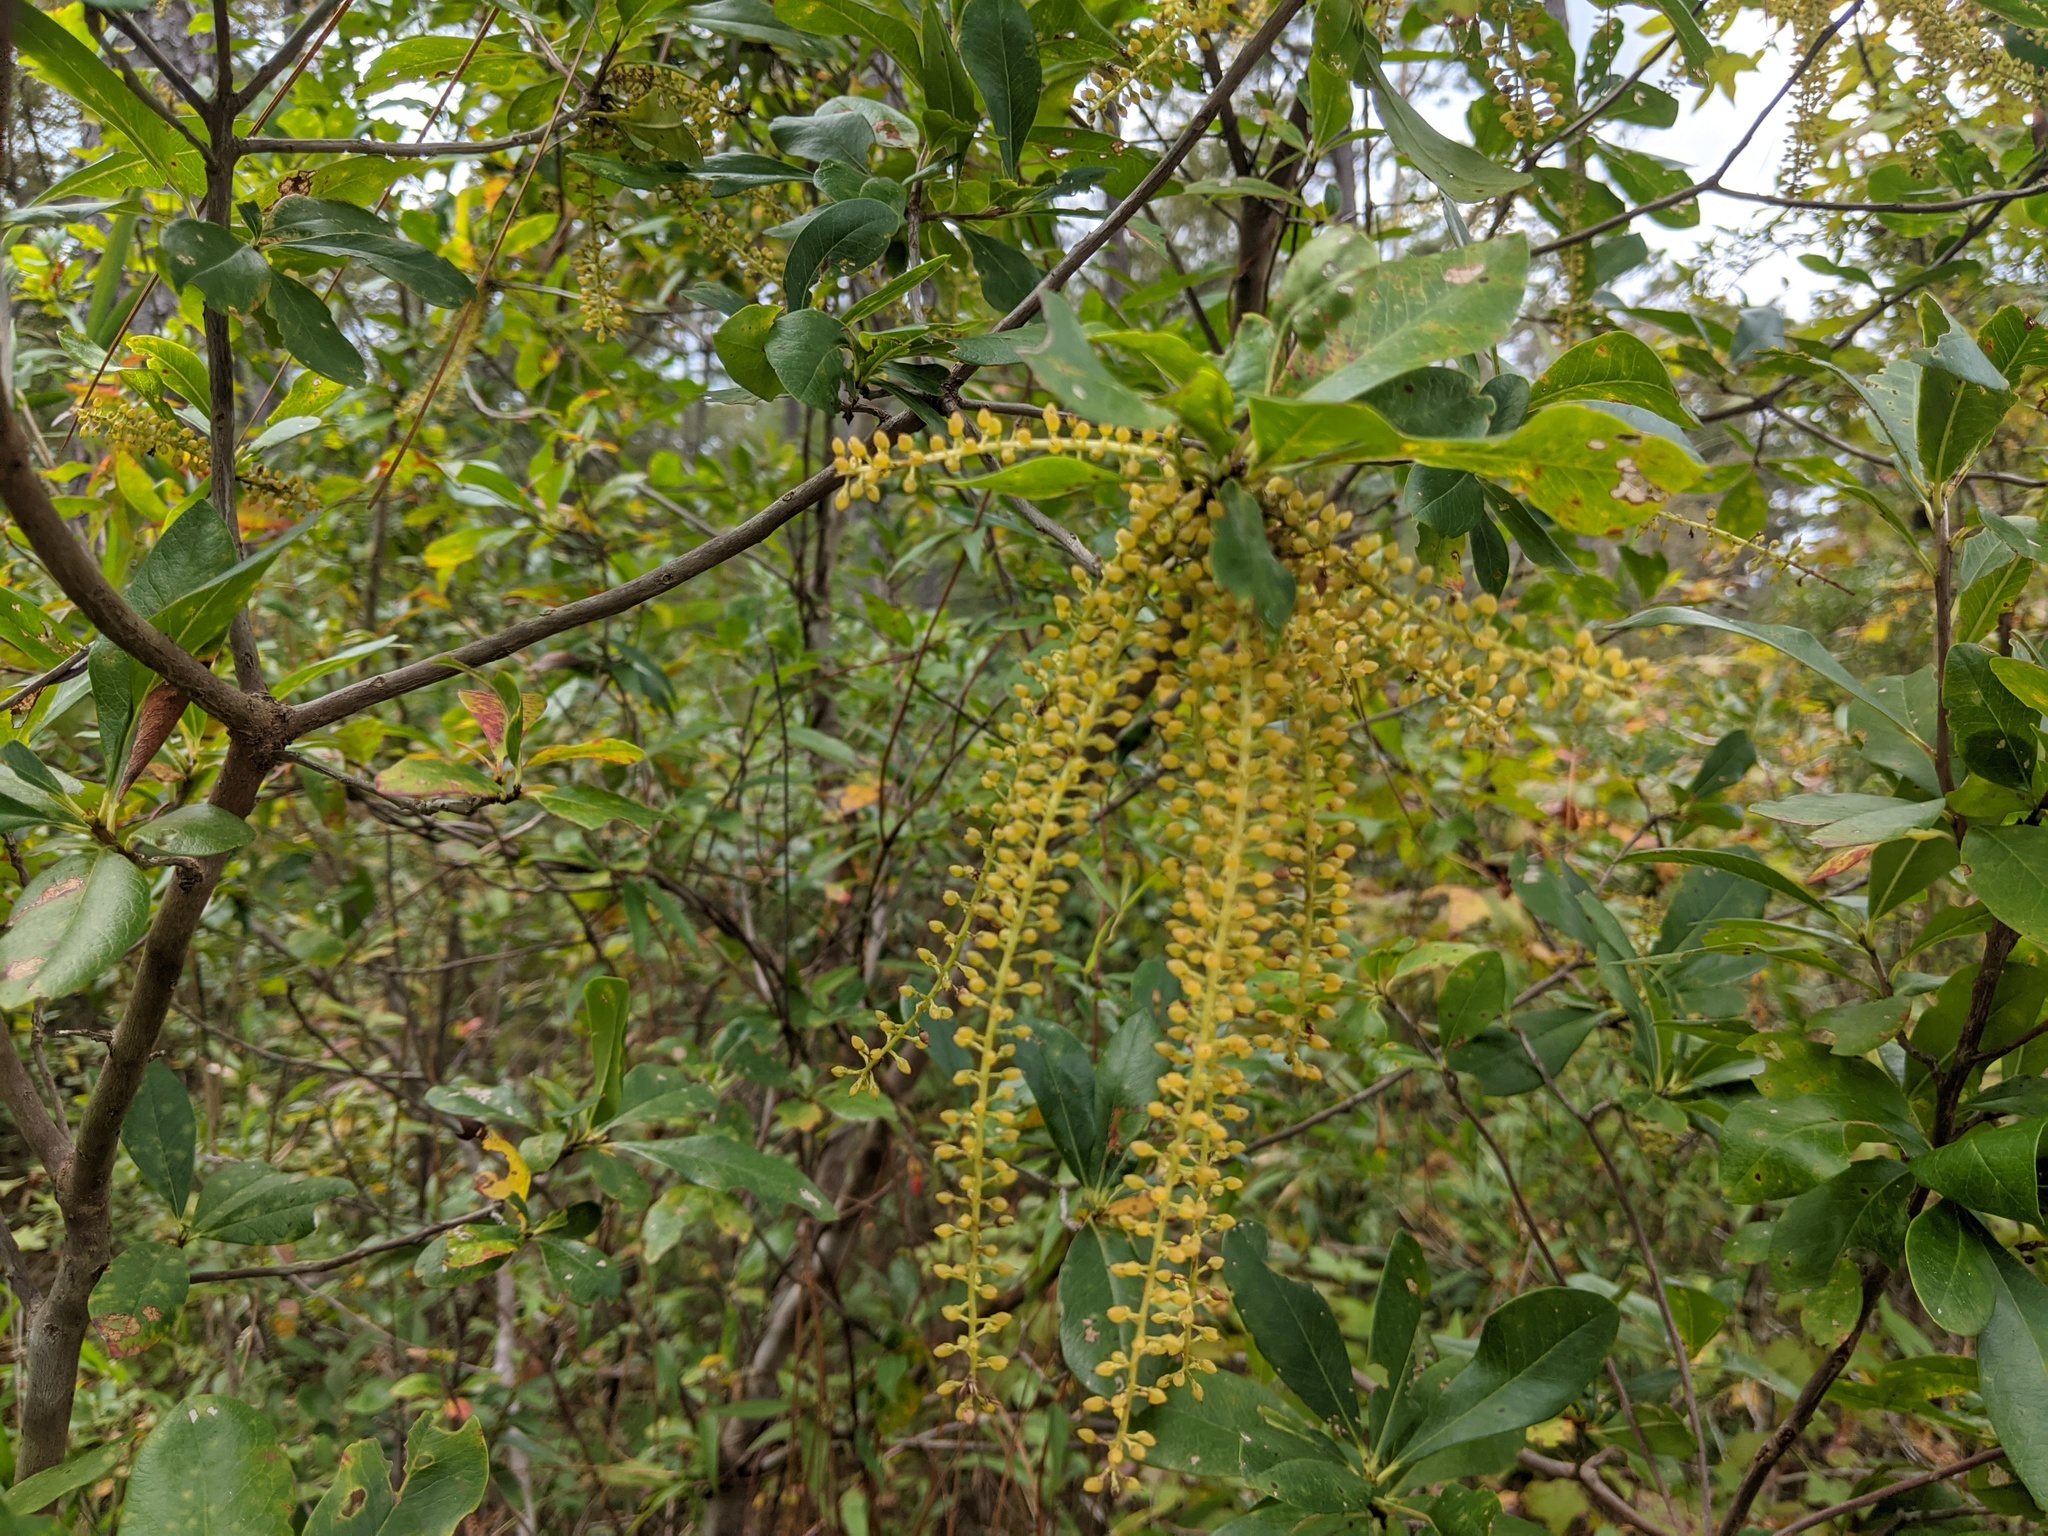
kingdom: Plantae
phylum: Tracheophyta
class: Magnoliopsida
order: Ericales
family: Cyrillaceae
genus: Cyrilla
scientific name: Cyrilla racemiflora
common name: Black titi
